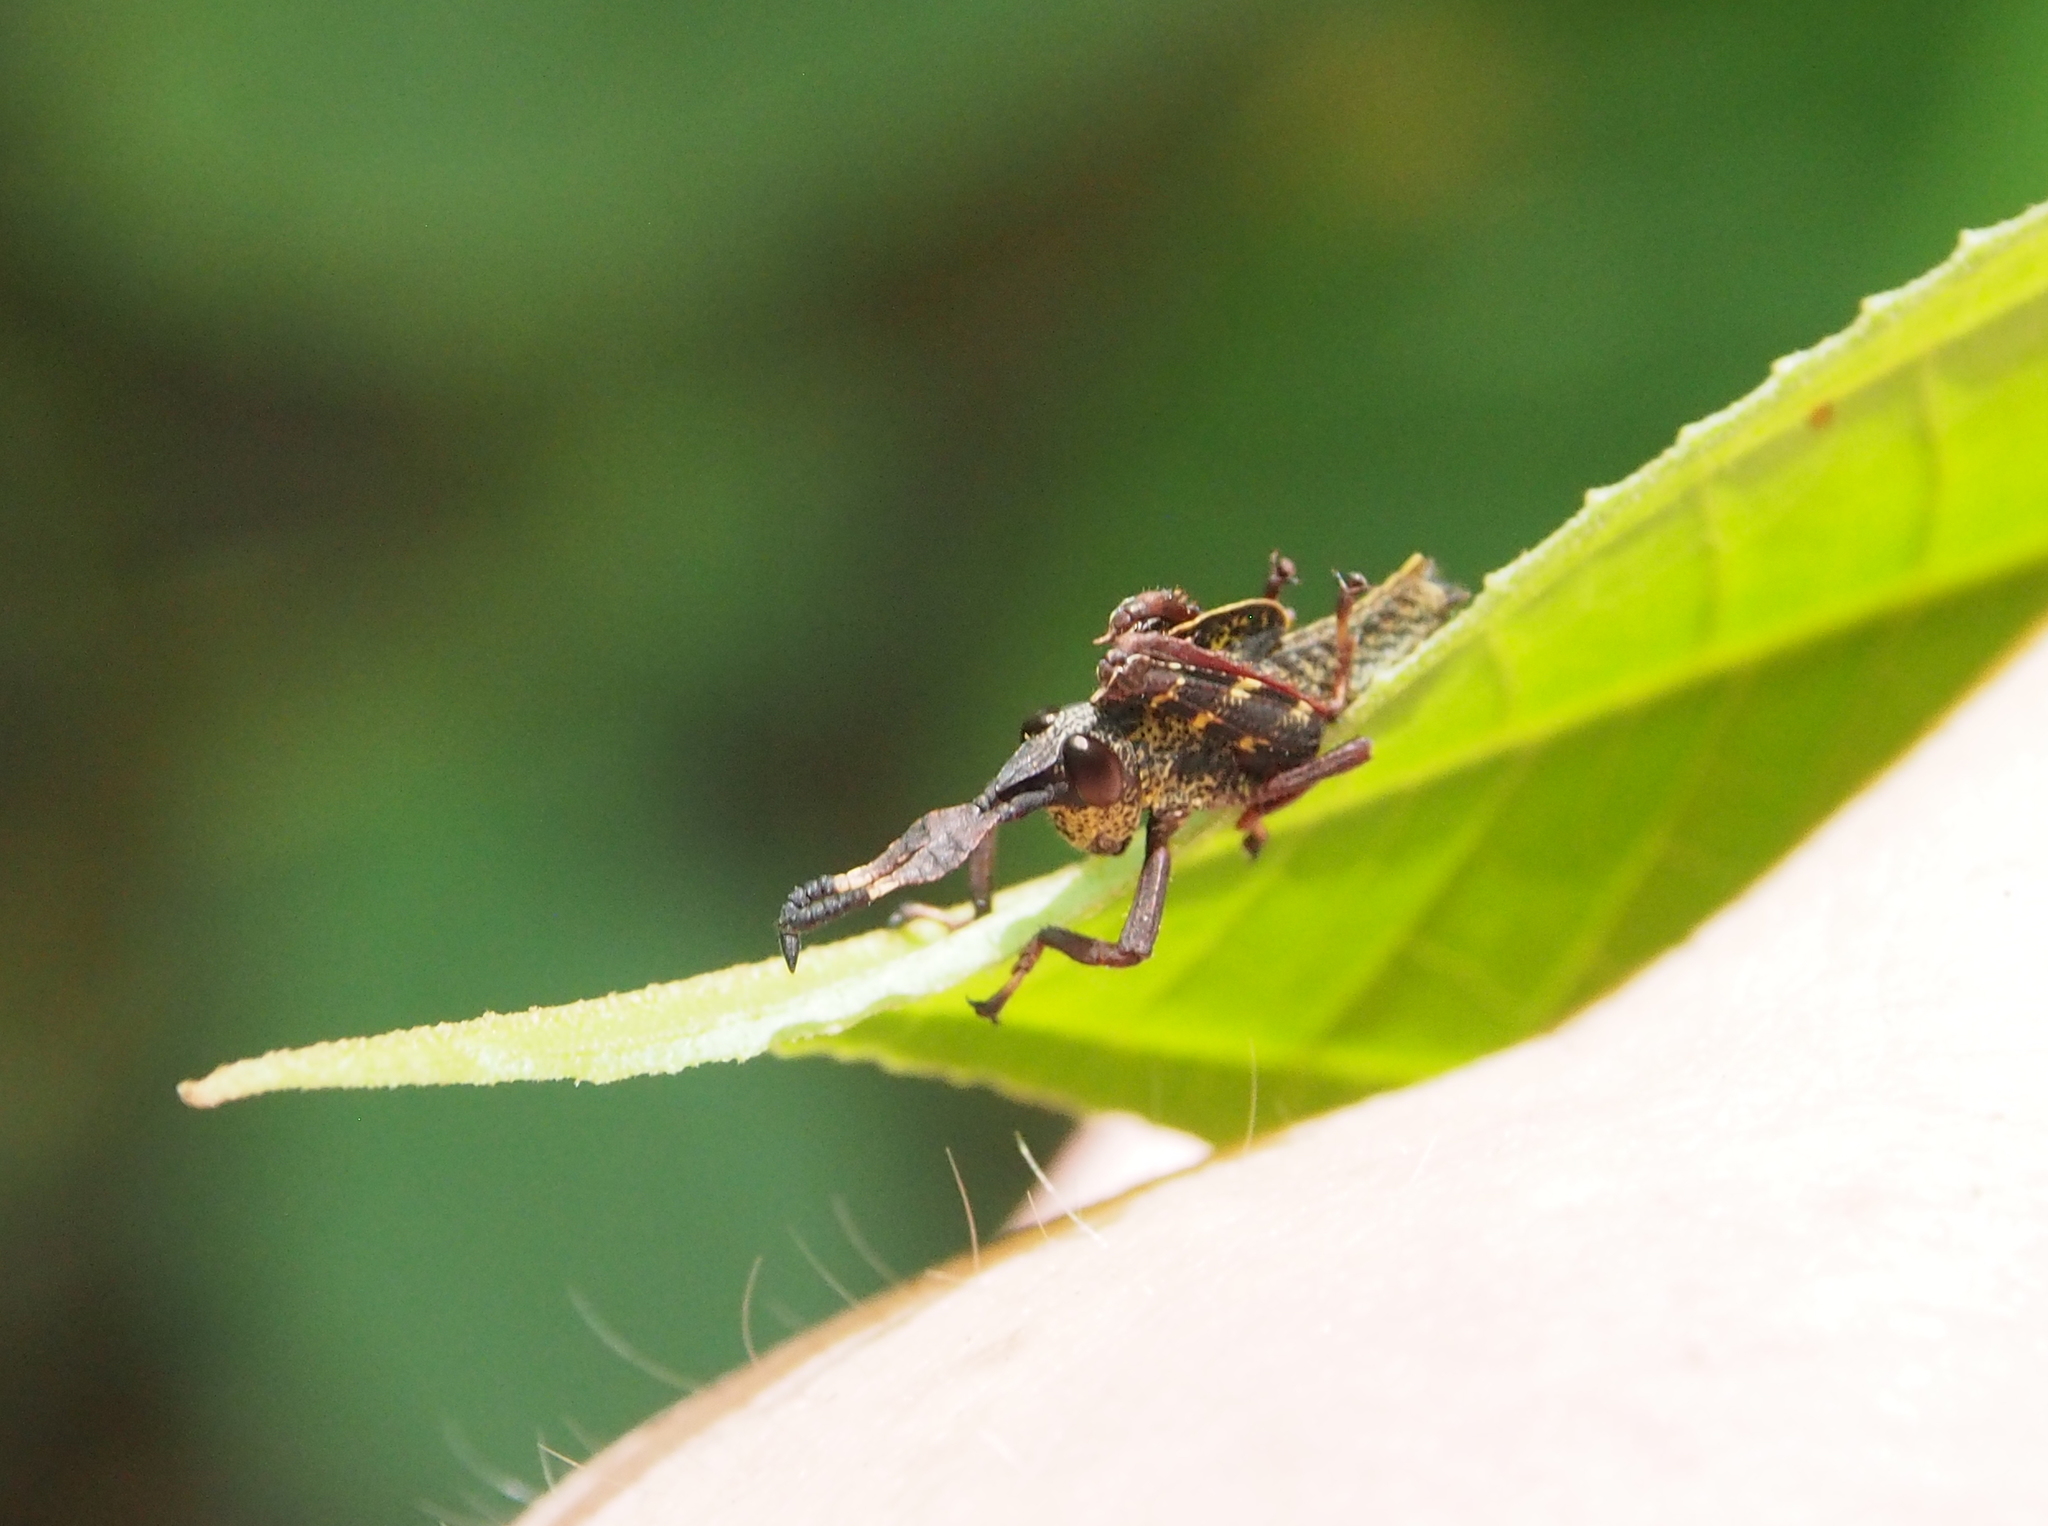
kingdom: Animalia
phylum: Arthropoda
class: Insecta
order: Orthoptera
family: Romaleidae
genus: Munatia
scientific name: Munatia biolleyi
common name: Costa rica tree grasshopper
